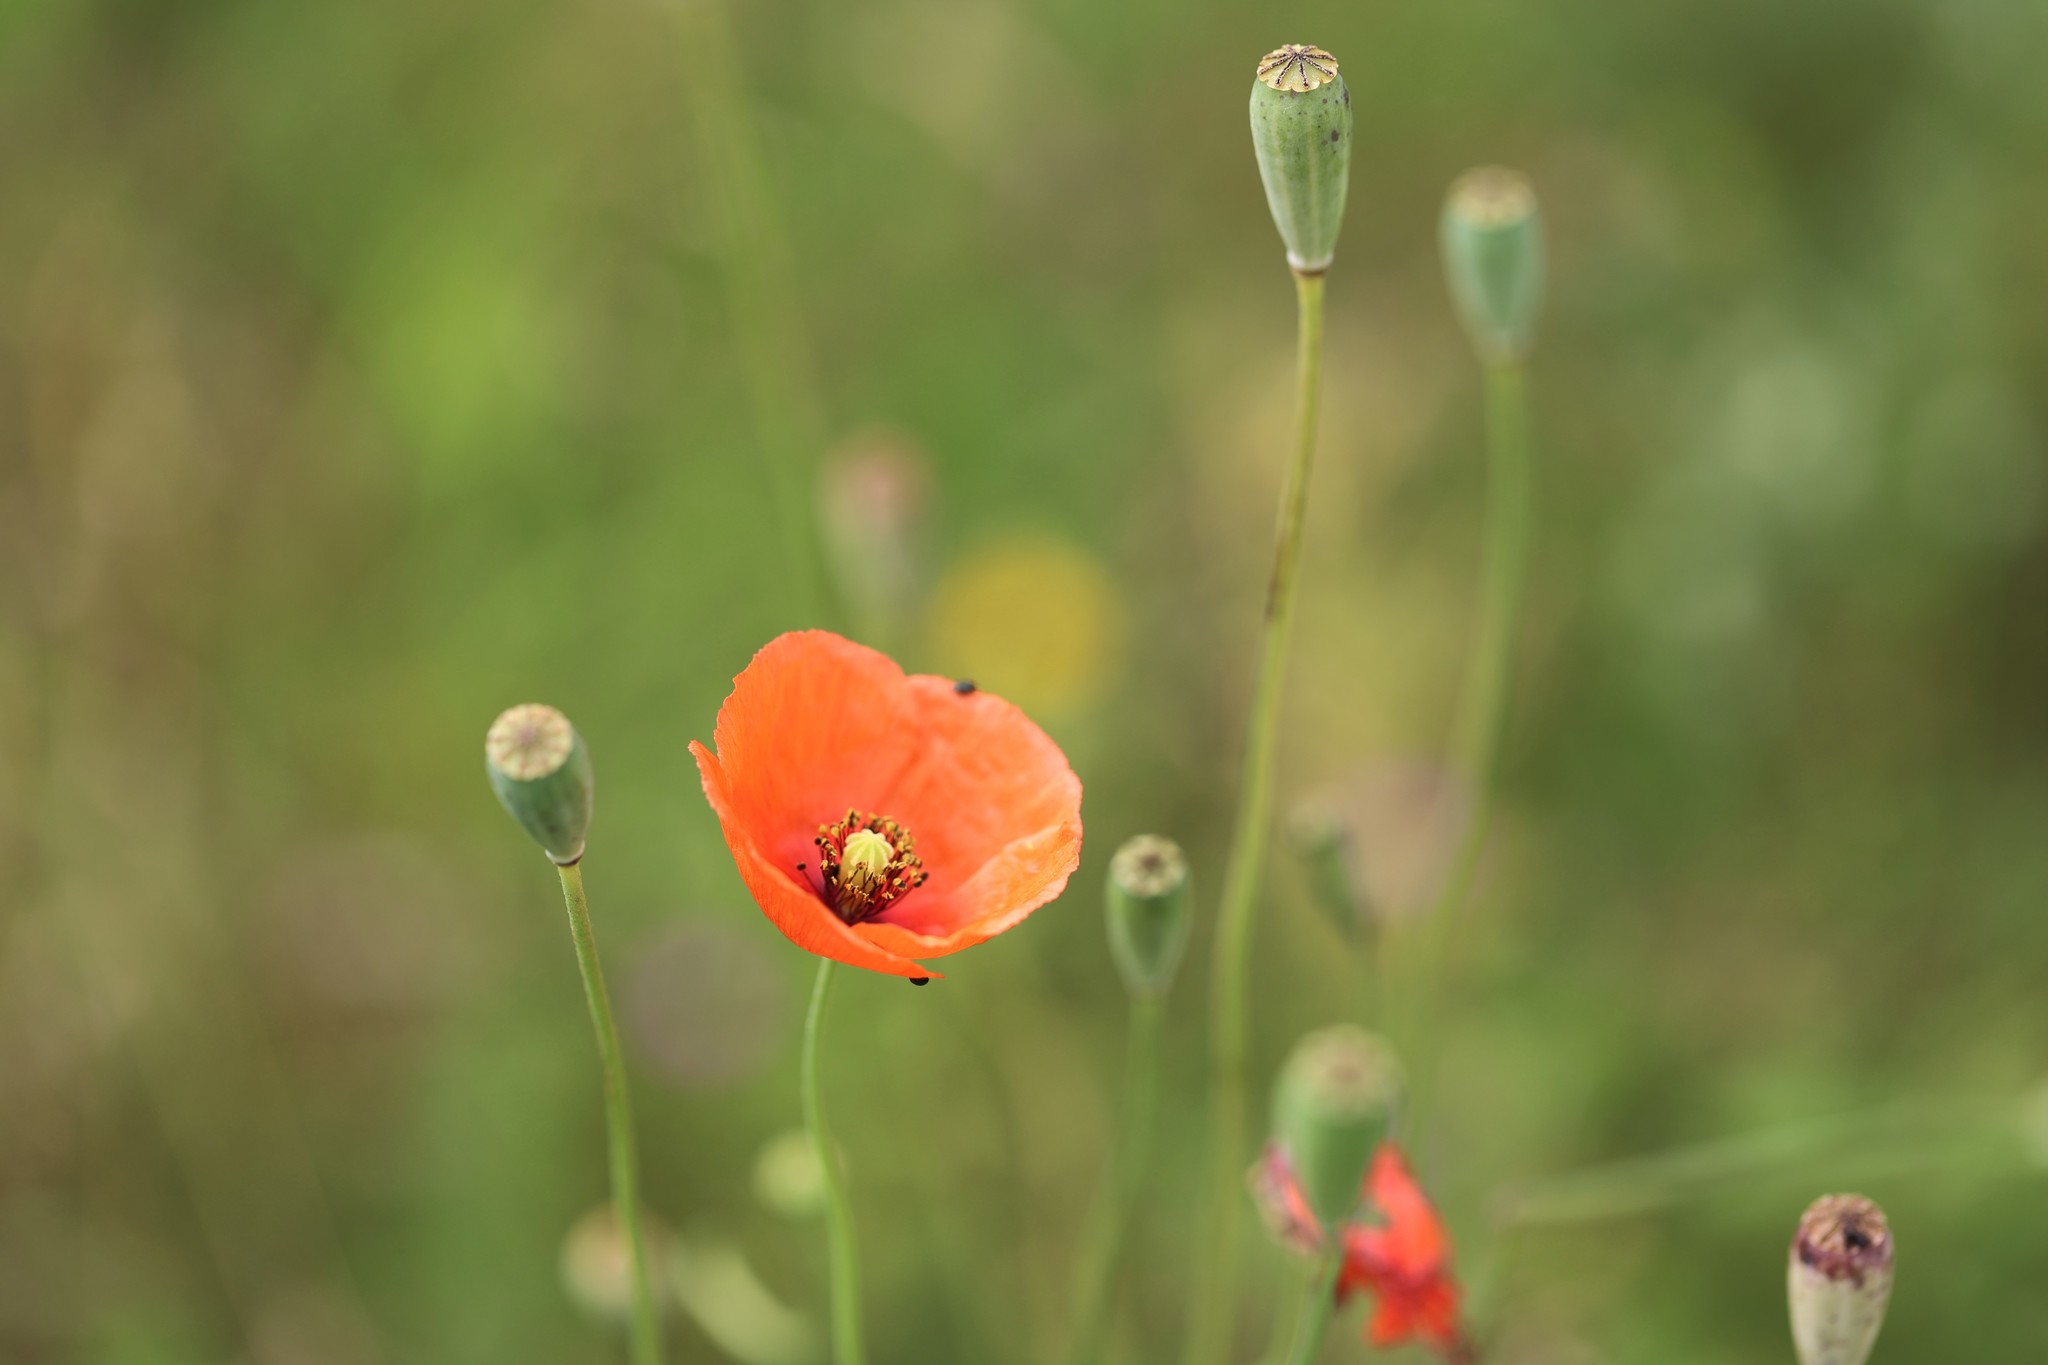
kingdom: Plantae
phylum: Tracheophyta
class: Magnoliopsida
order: Ranunculales
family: Papaveraceae
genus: Papaver
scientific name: Papaver dubium
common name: Long-headed poppy
